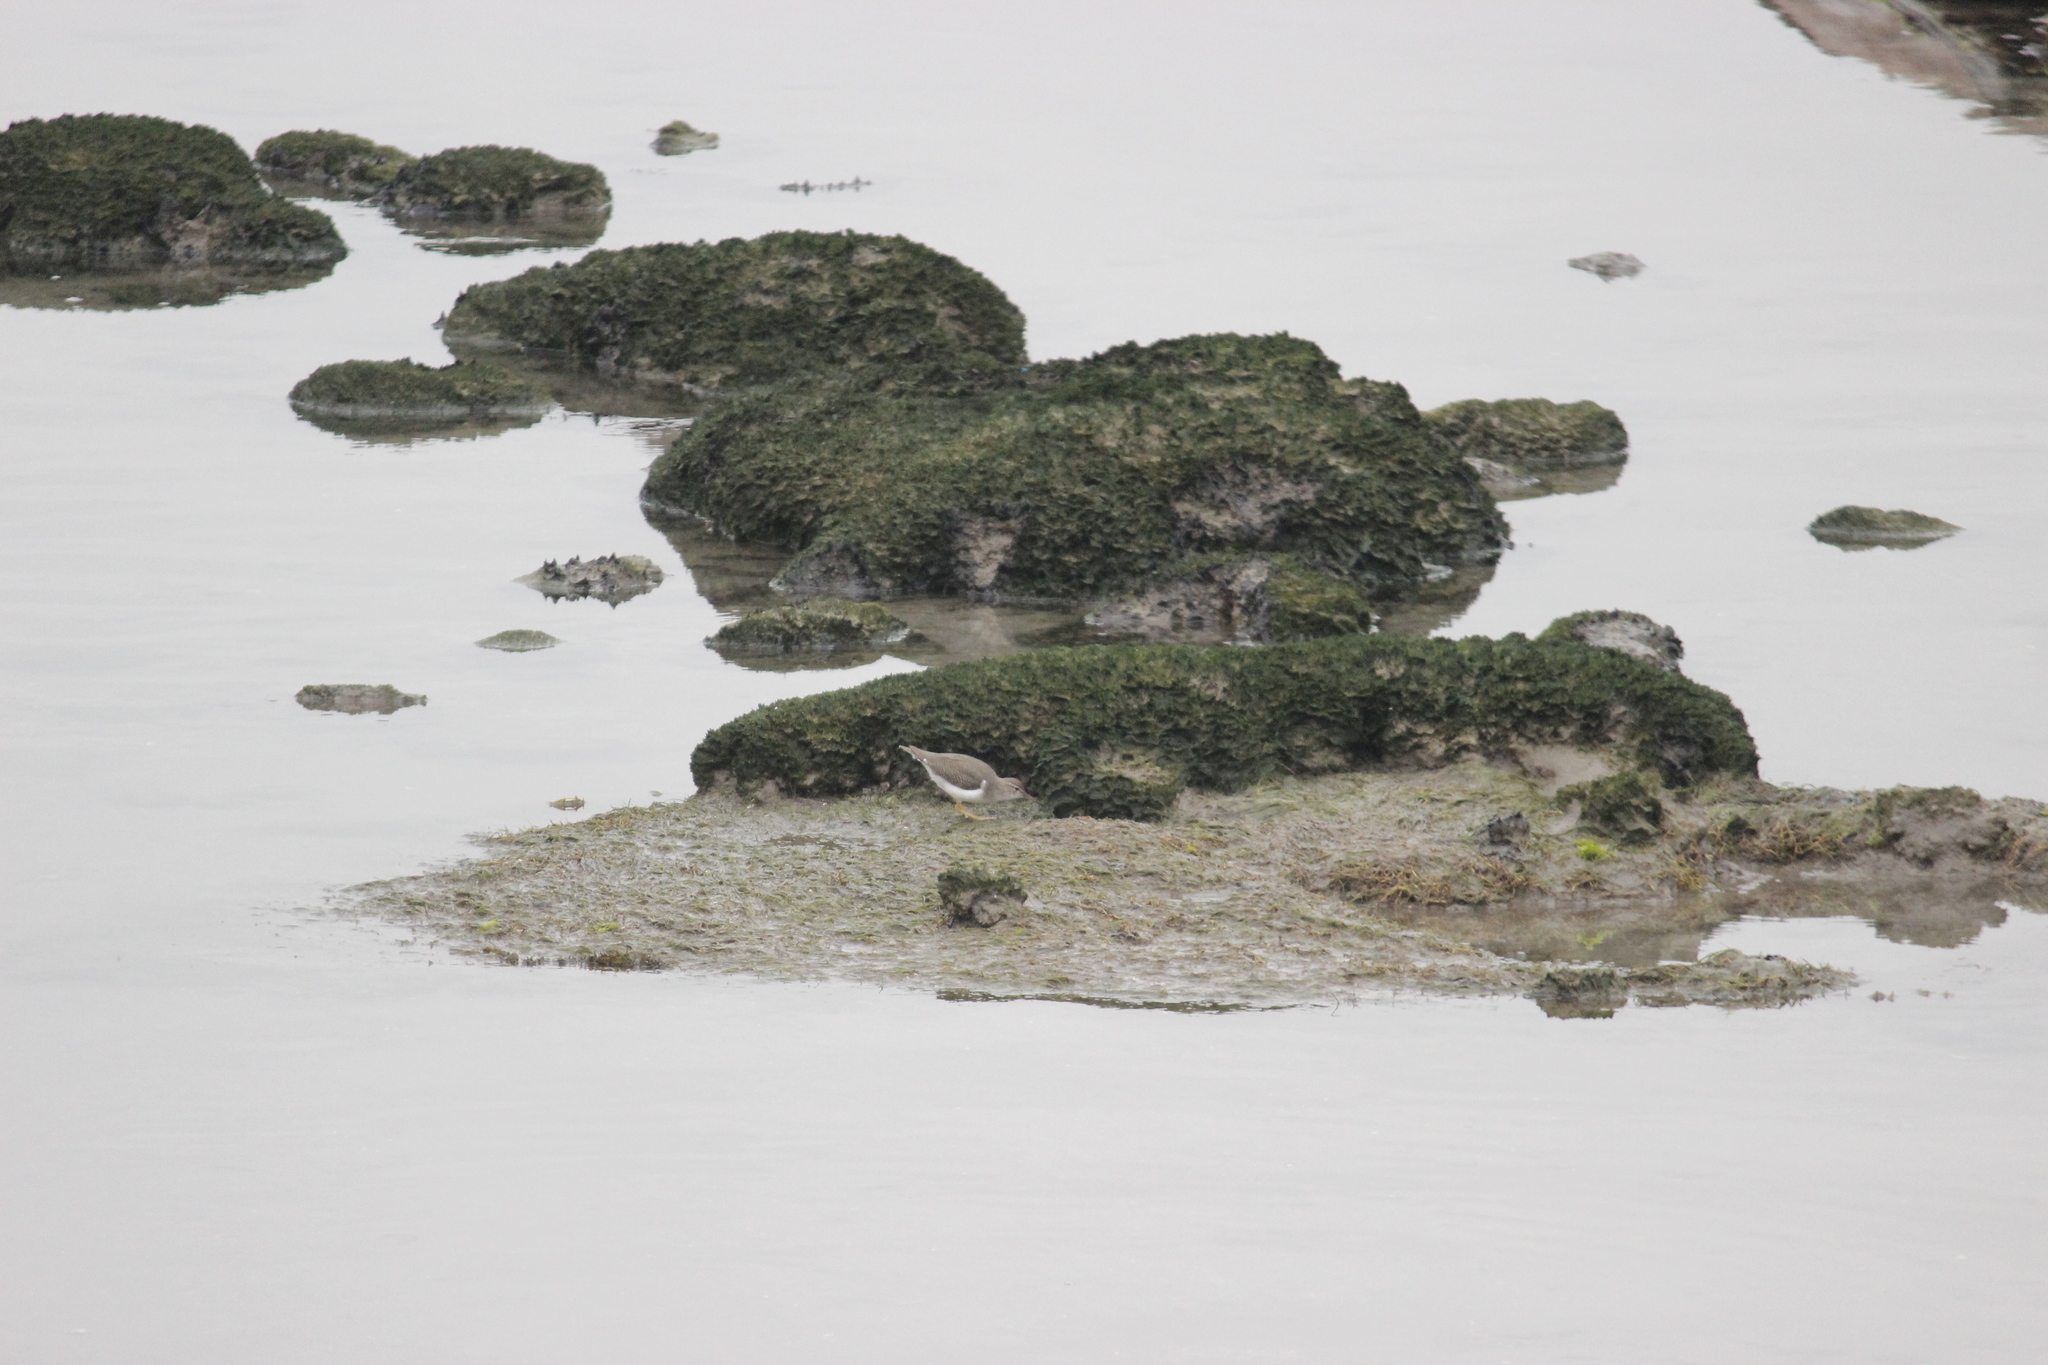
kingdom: Animalia
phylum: Chordata
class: Aves
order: Charadriiformes
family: Scolopacidae
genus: Actitis
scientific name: Actitis macularius
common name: Spotted sandpiper
